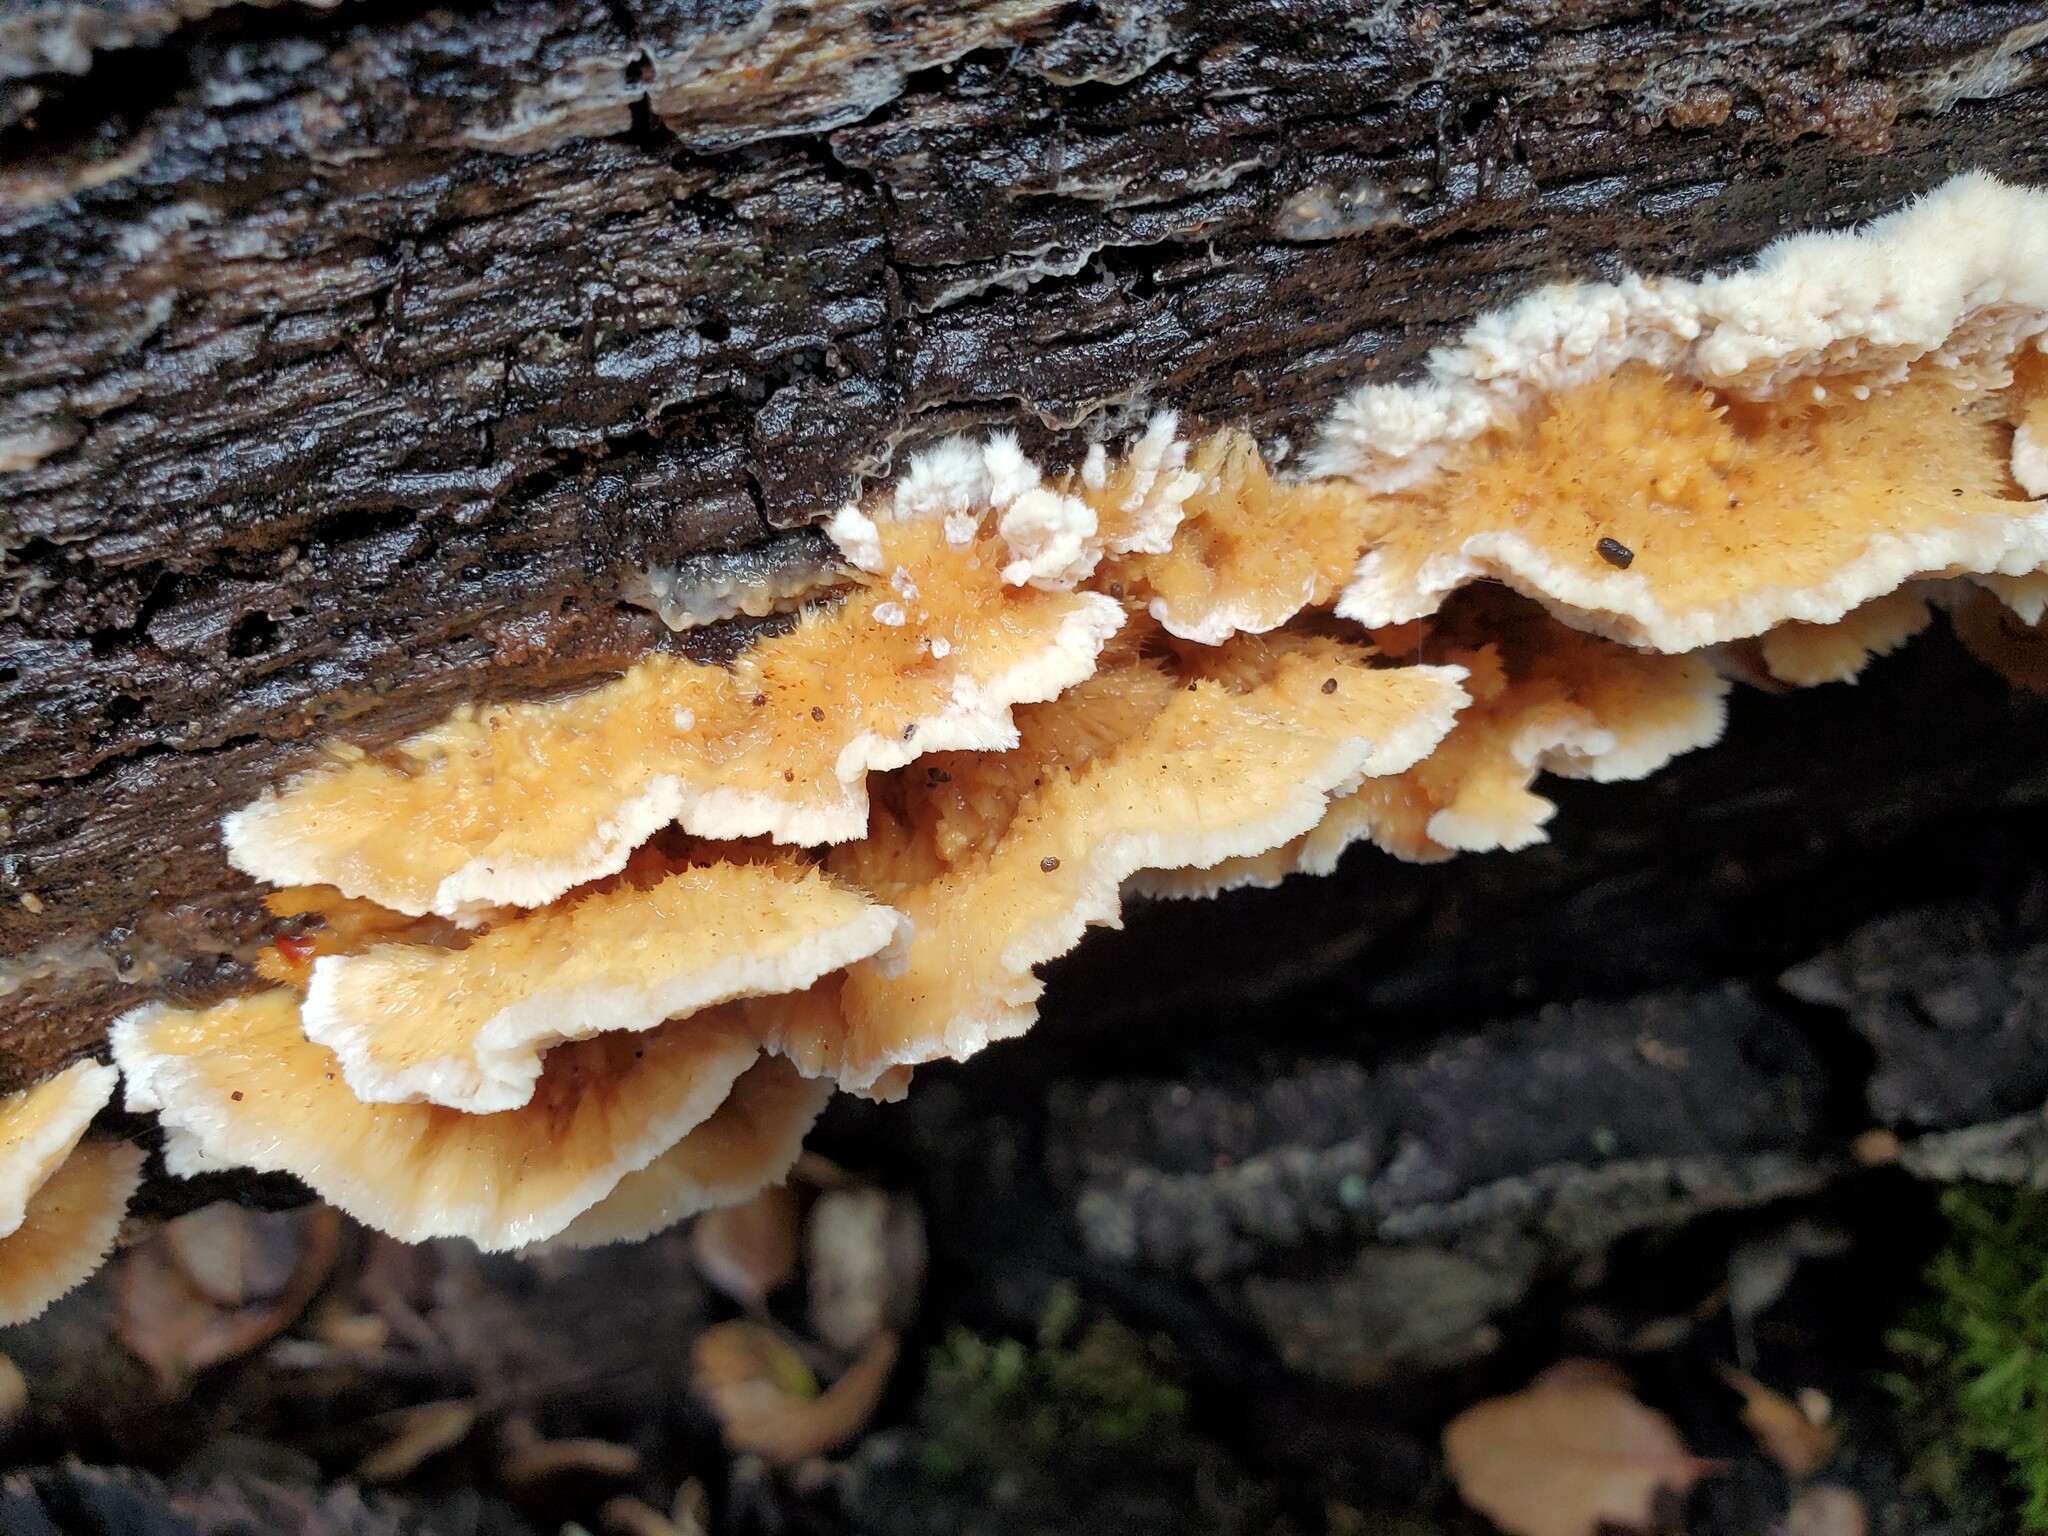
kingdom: Fungi
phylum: Basidiomycota
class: Agaricomycetes
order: Polyporales
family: Irpicaceae
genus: Trametopsis
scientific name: Trametopsis cervina
